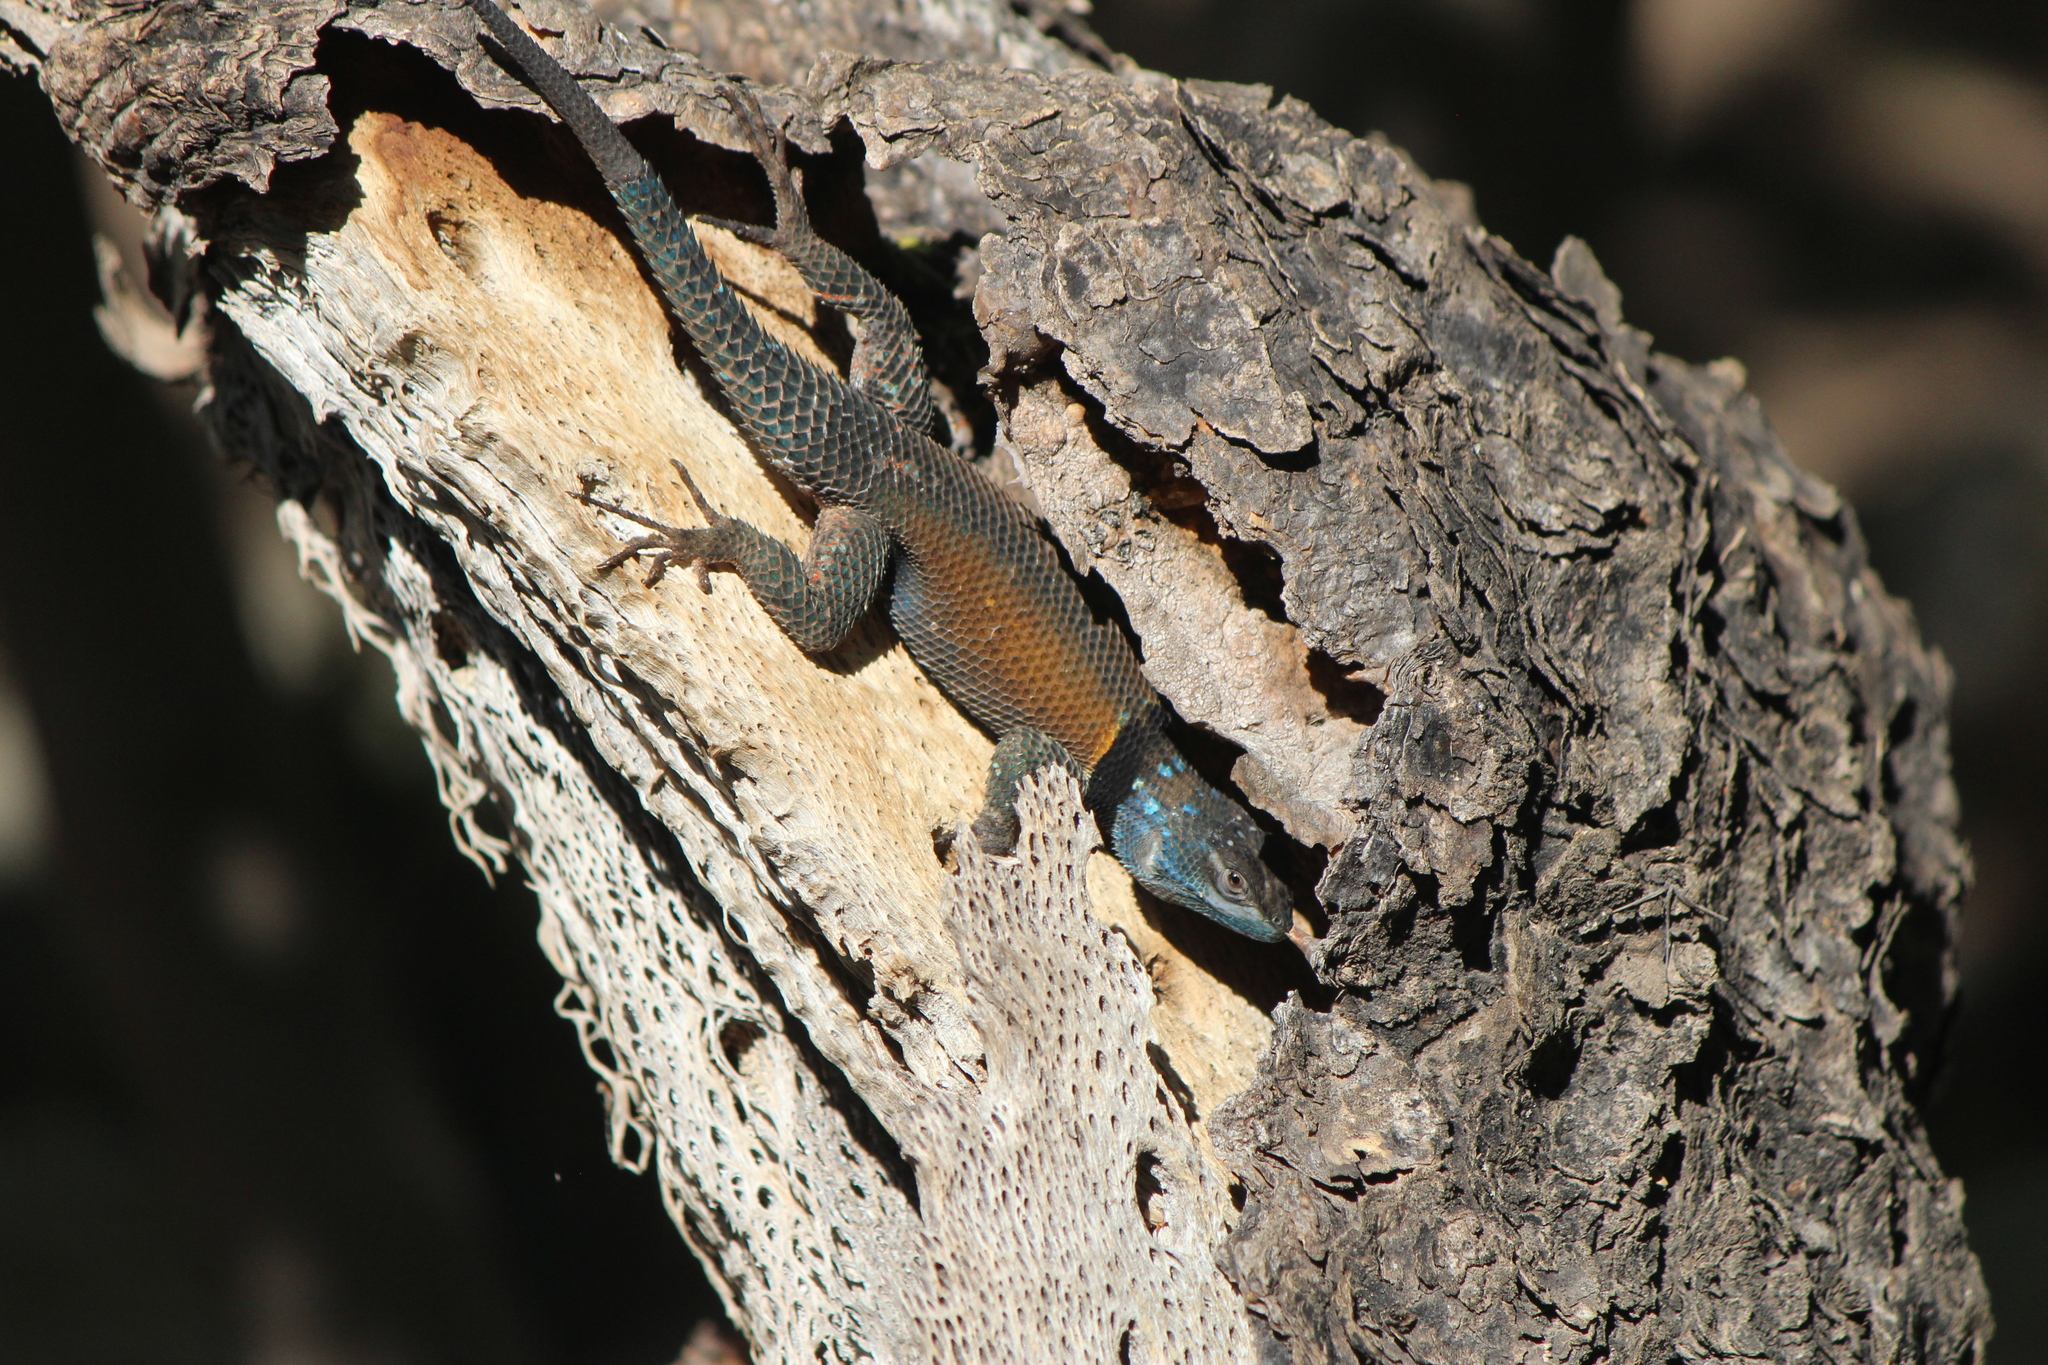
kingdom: Animalia
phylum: Chordata
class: Squamata
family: Phrynosomatidae
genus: Sceloporus
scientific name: Sceloporus minor
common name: Minor lizard
